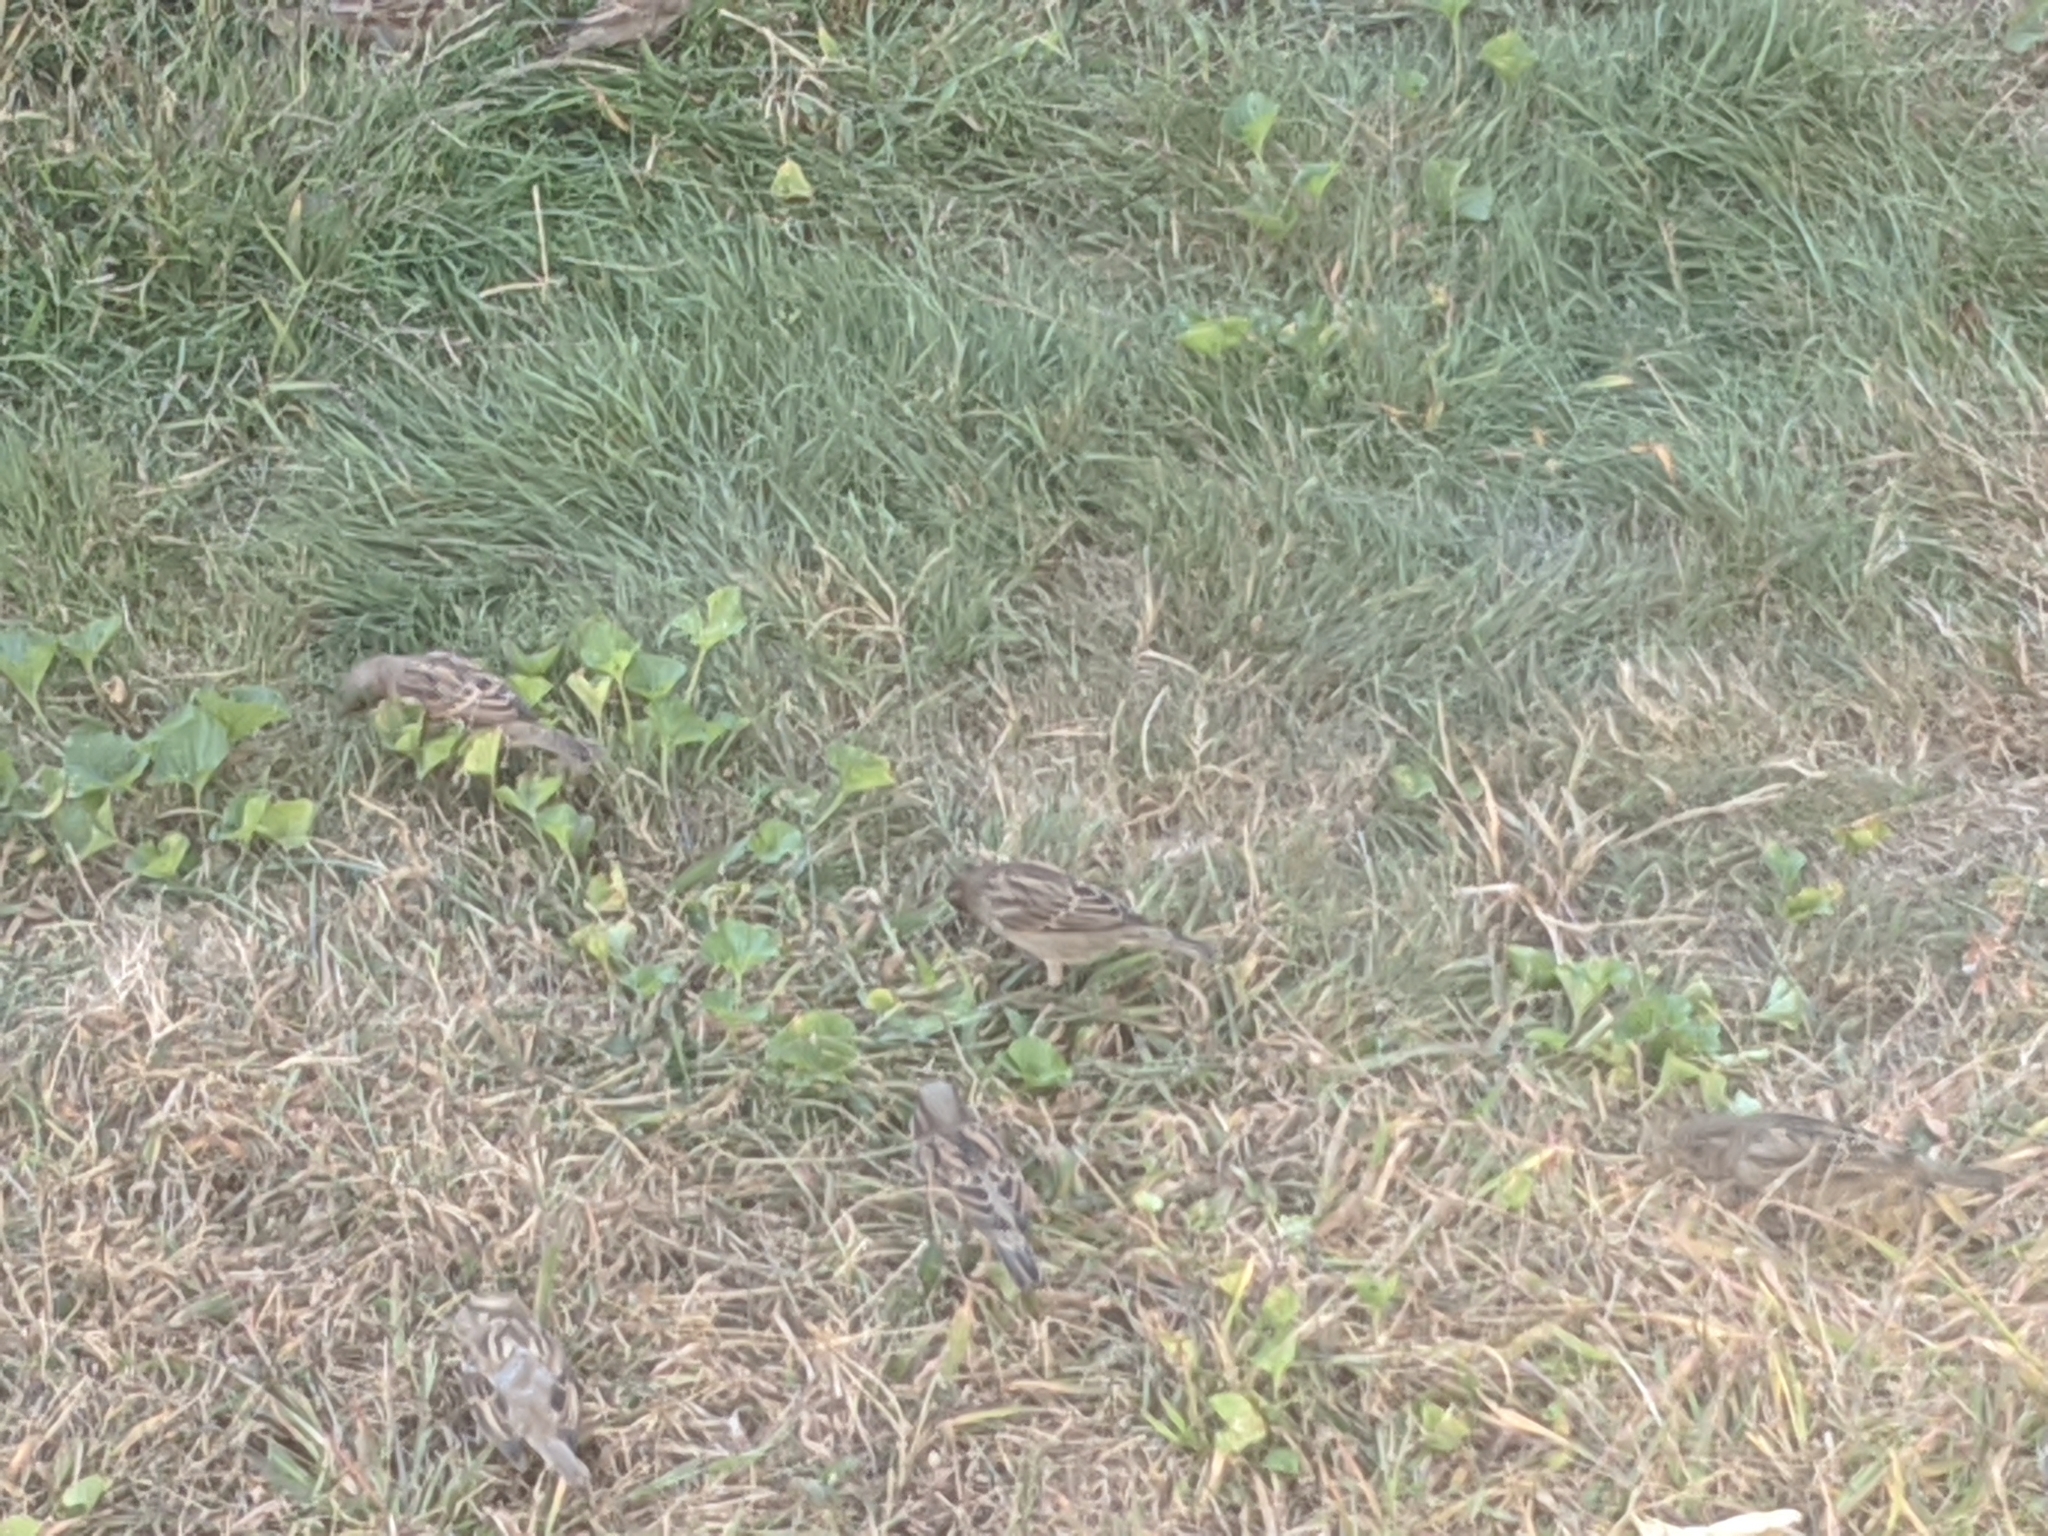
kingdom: Animalia
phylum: Chordata
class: Aves
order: Passeriformes
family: Passeridae
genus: Passer
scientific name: Passer domesticus
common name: House sparrow
